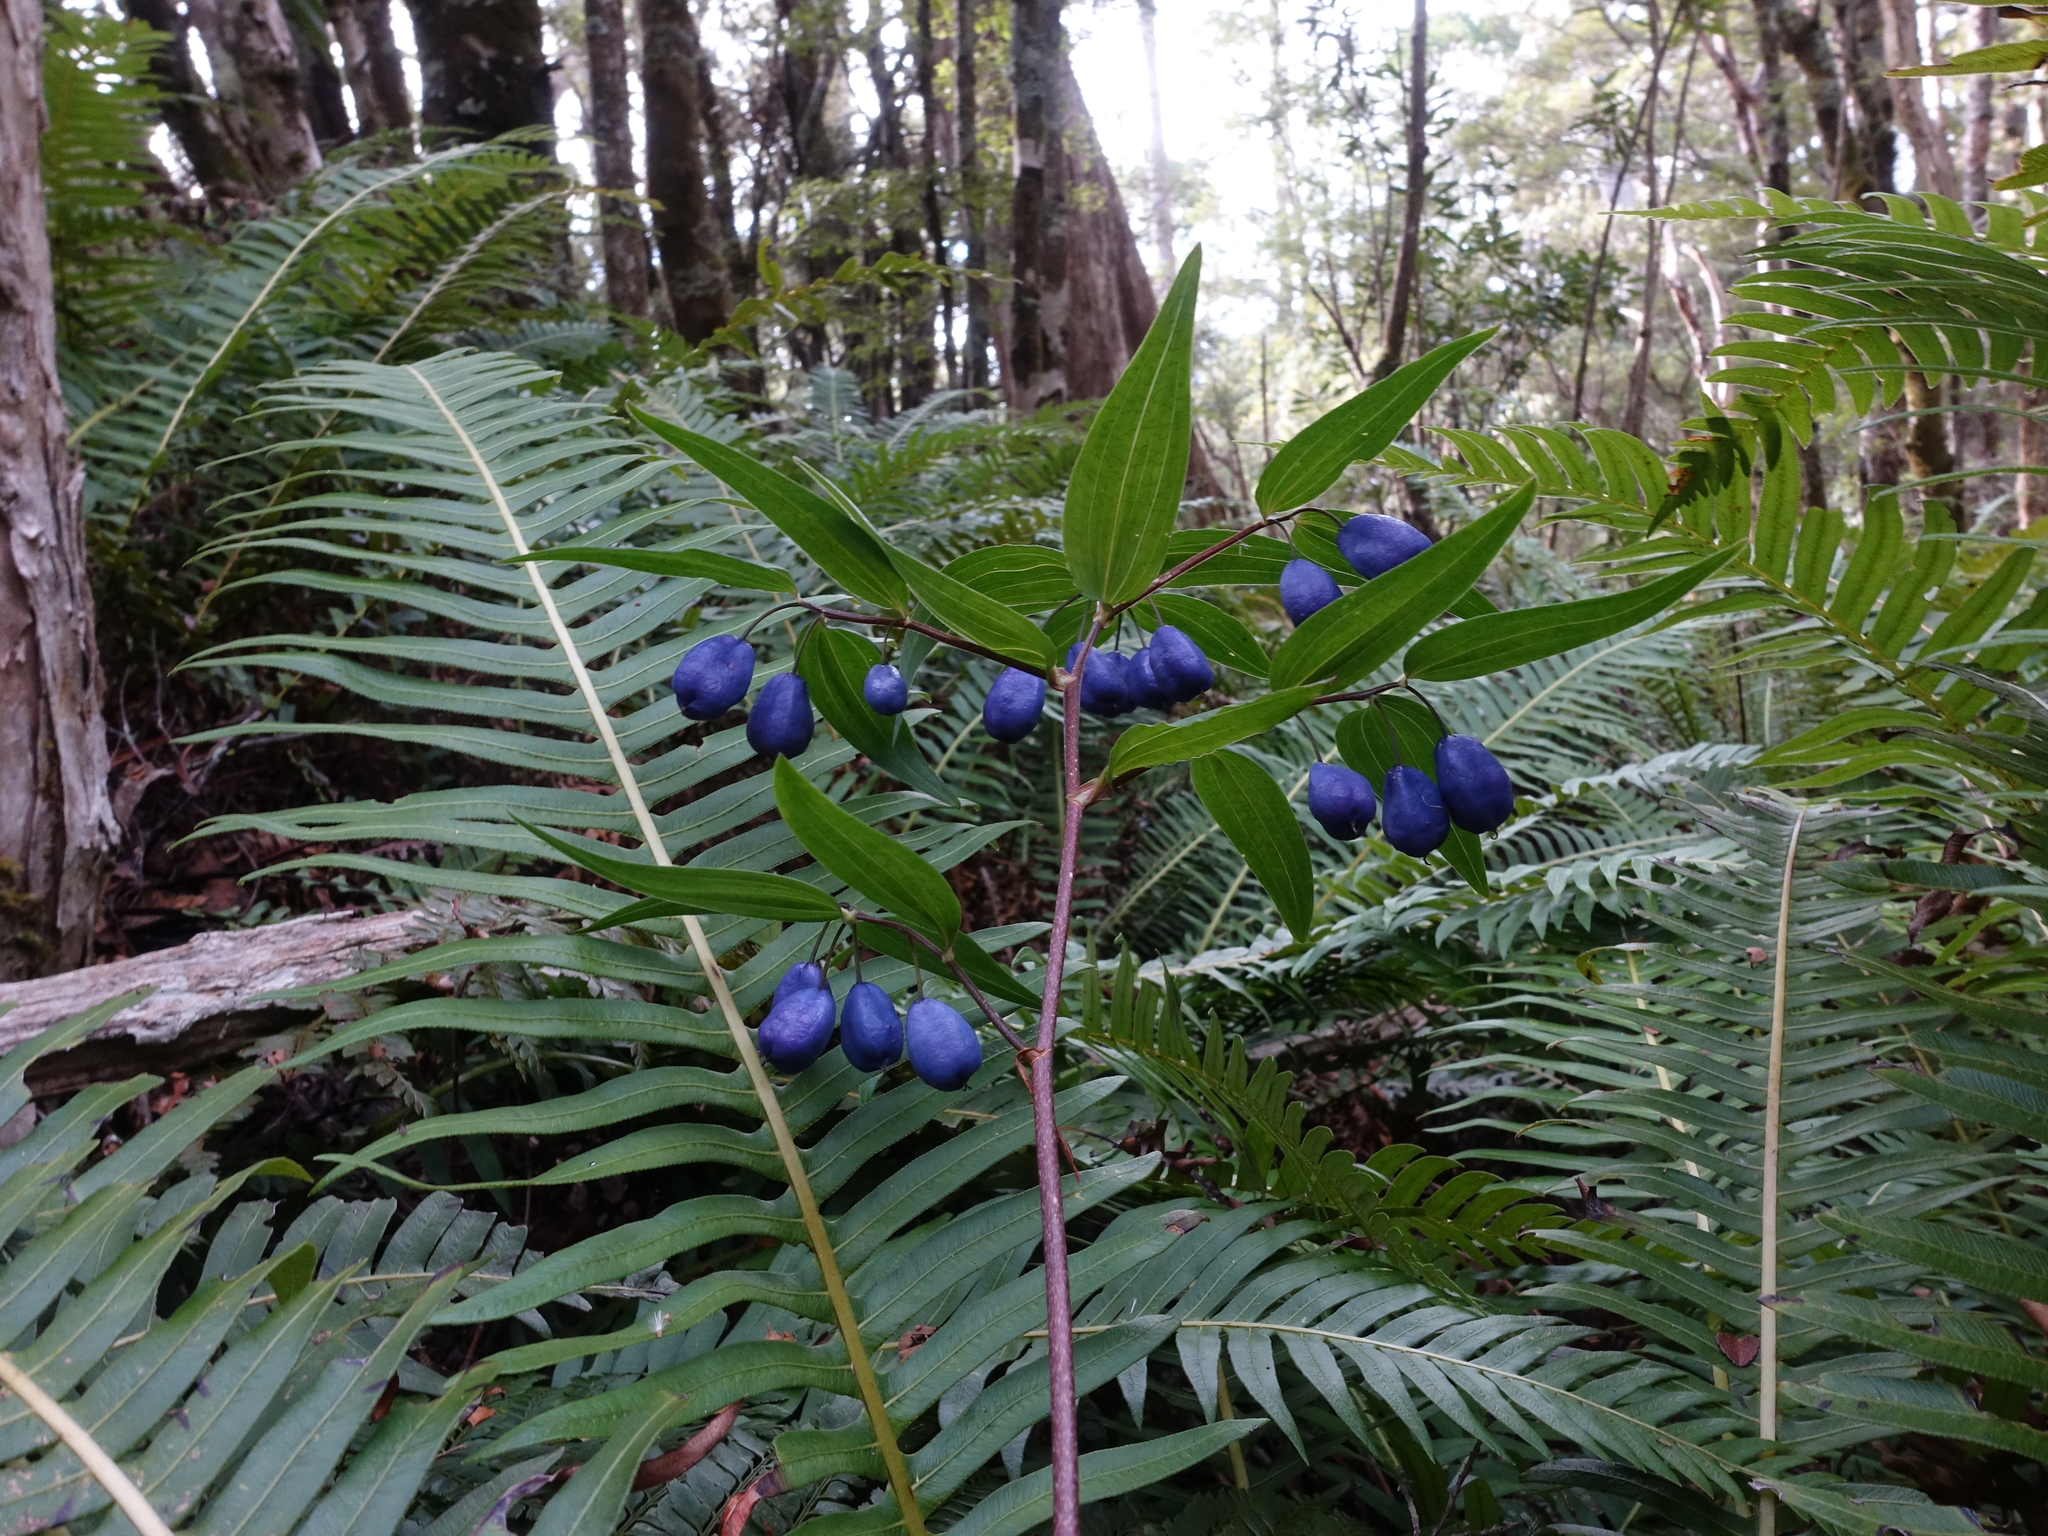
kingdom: Plantae
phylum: Tracheophyta
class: Liliopsida
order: Liliales
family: Alstroemeriaceae
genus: Drymophila
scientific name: Drymophila cyanocarpa
